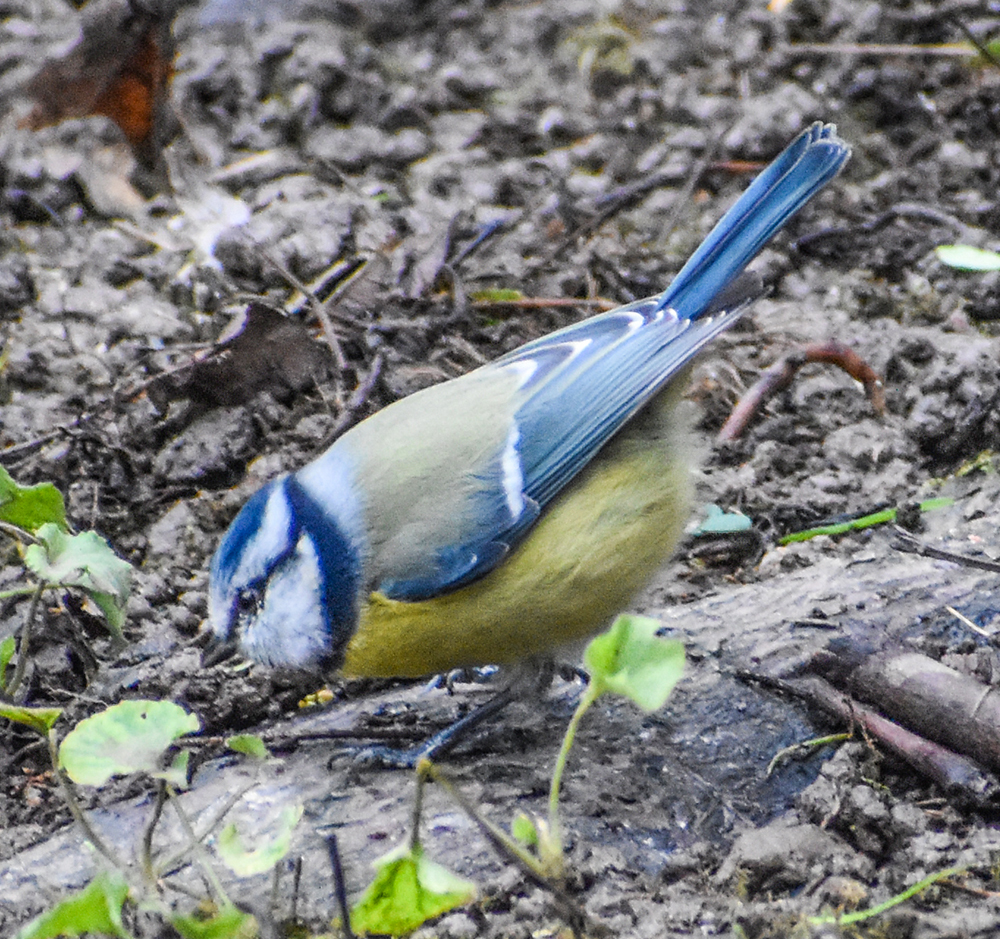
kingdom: Animalia
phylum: Chordata
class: Aves
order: Passeriformes
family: Paridae
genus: Cyanistes
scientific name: Cyanistes caeruleus
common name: Eurasian blue tit
